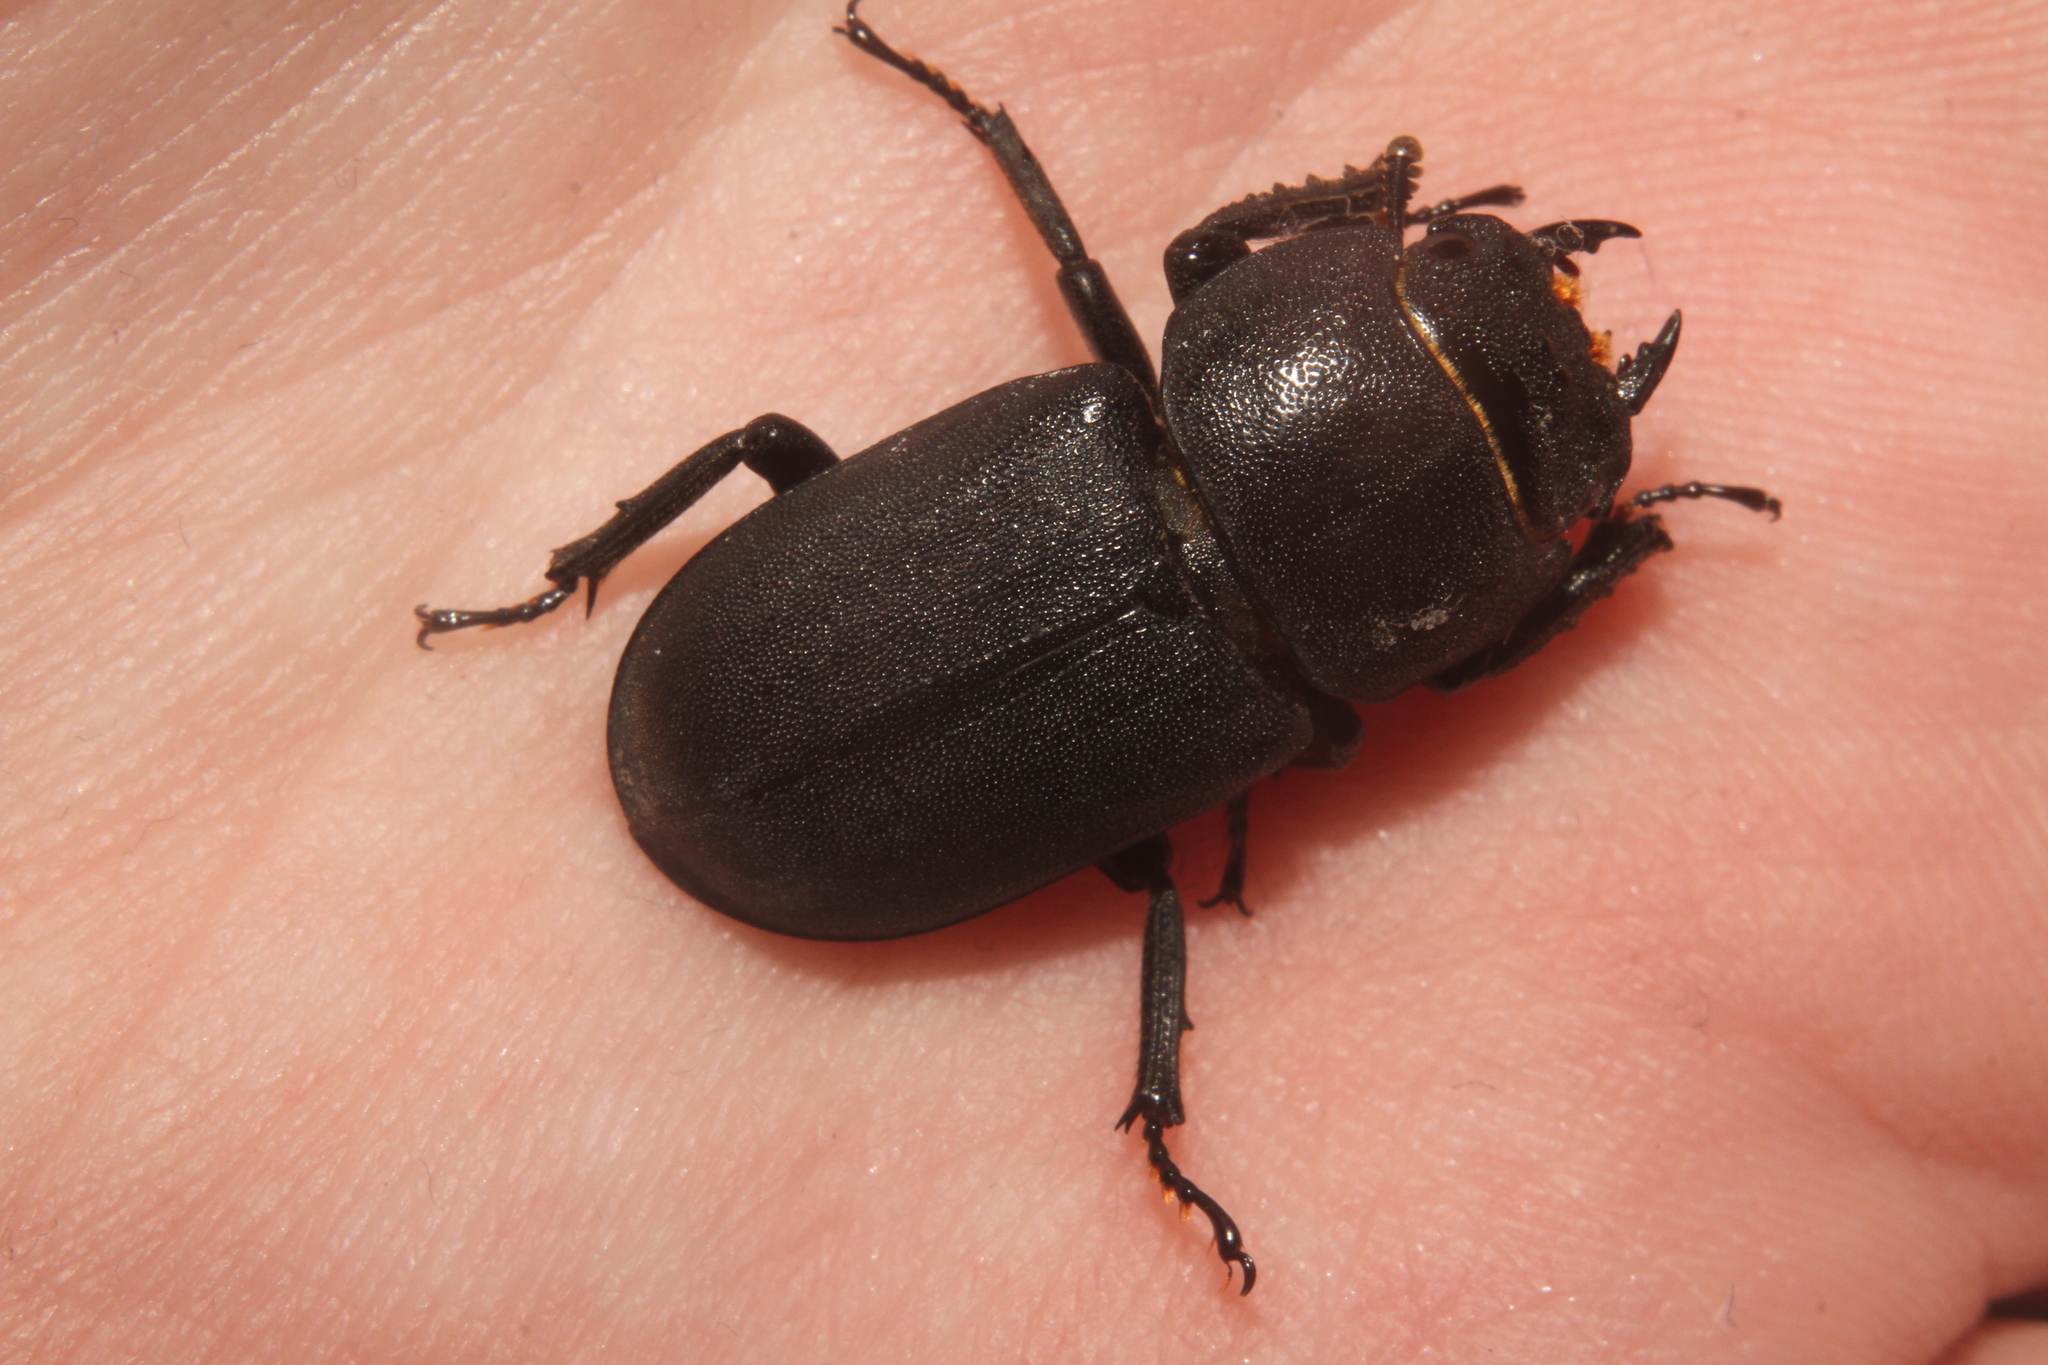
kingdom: Animalia
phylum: Arthropoda
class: Insecta
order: Coleoptera
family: Lucanidae
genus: Dorcus
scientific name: Dorcus parallelipipedus
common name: Lesser stag beetle
